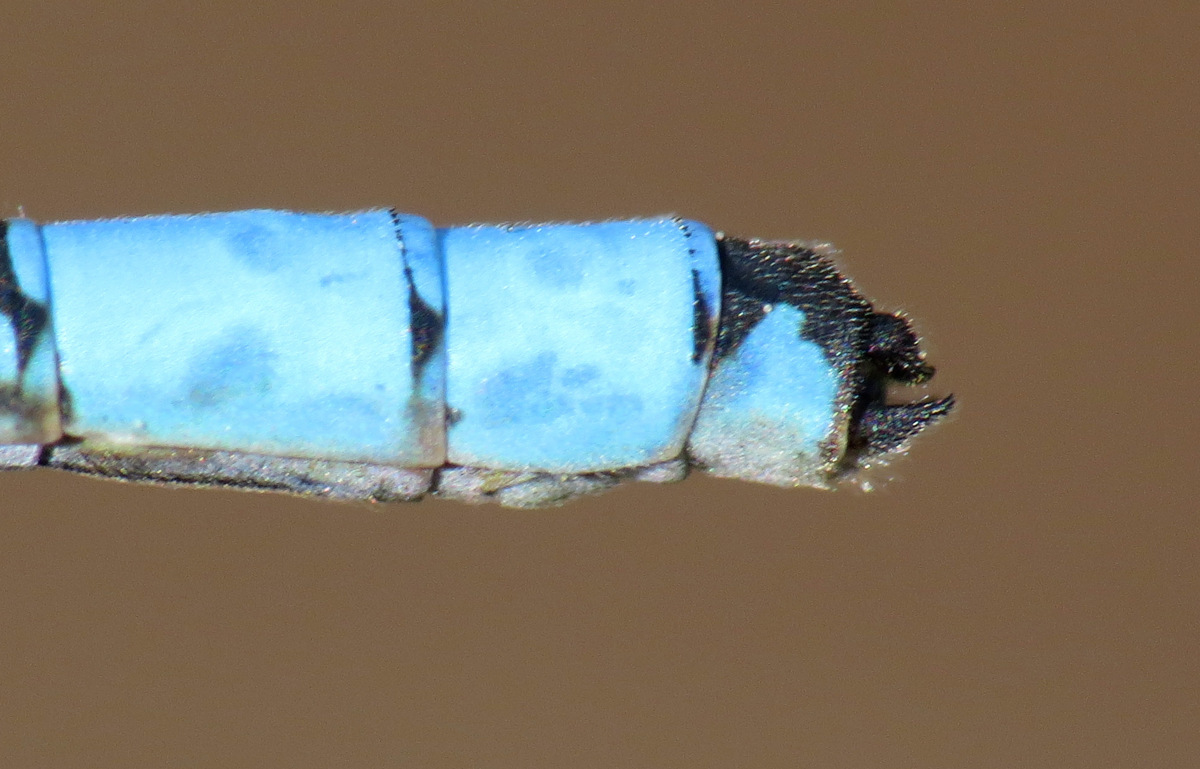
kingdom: Animalia
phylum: Arthropoda
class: Insecta
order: Odonata
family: Coenagrionidae
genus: Enallagma
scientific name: Enallagma annexum
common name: Northern bluet
